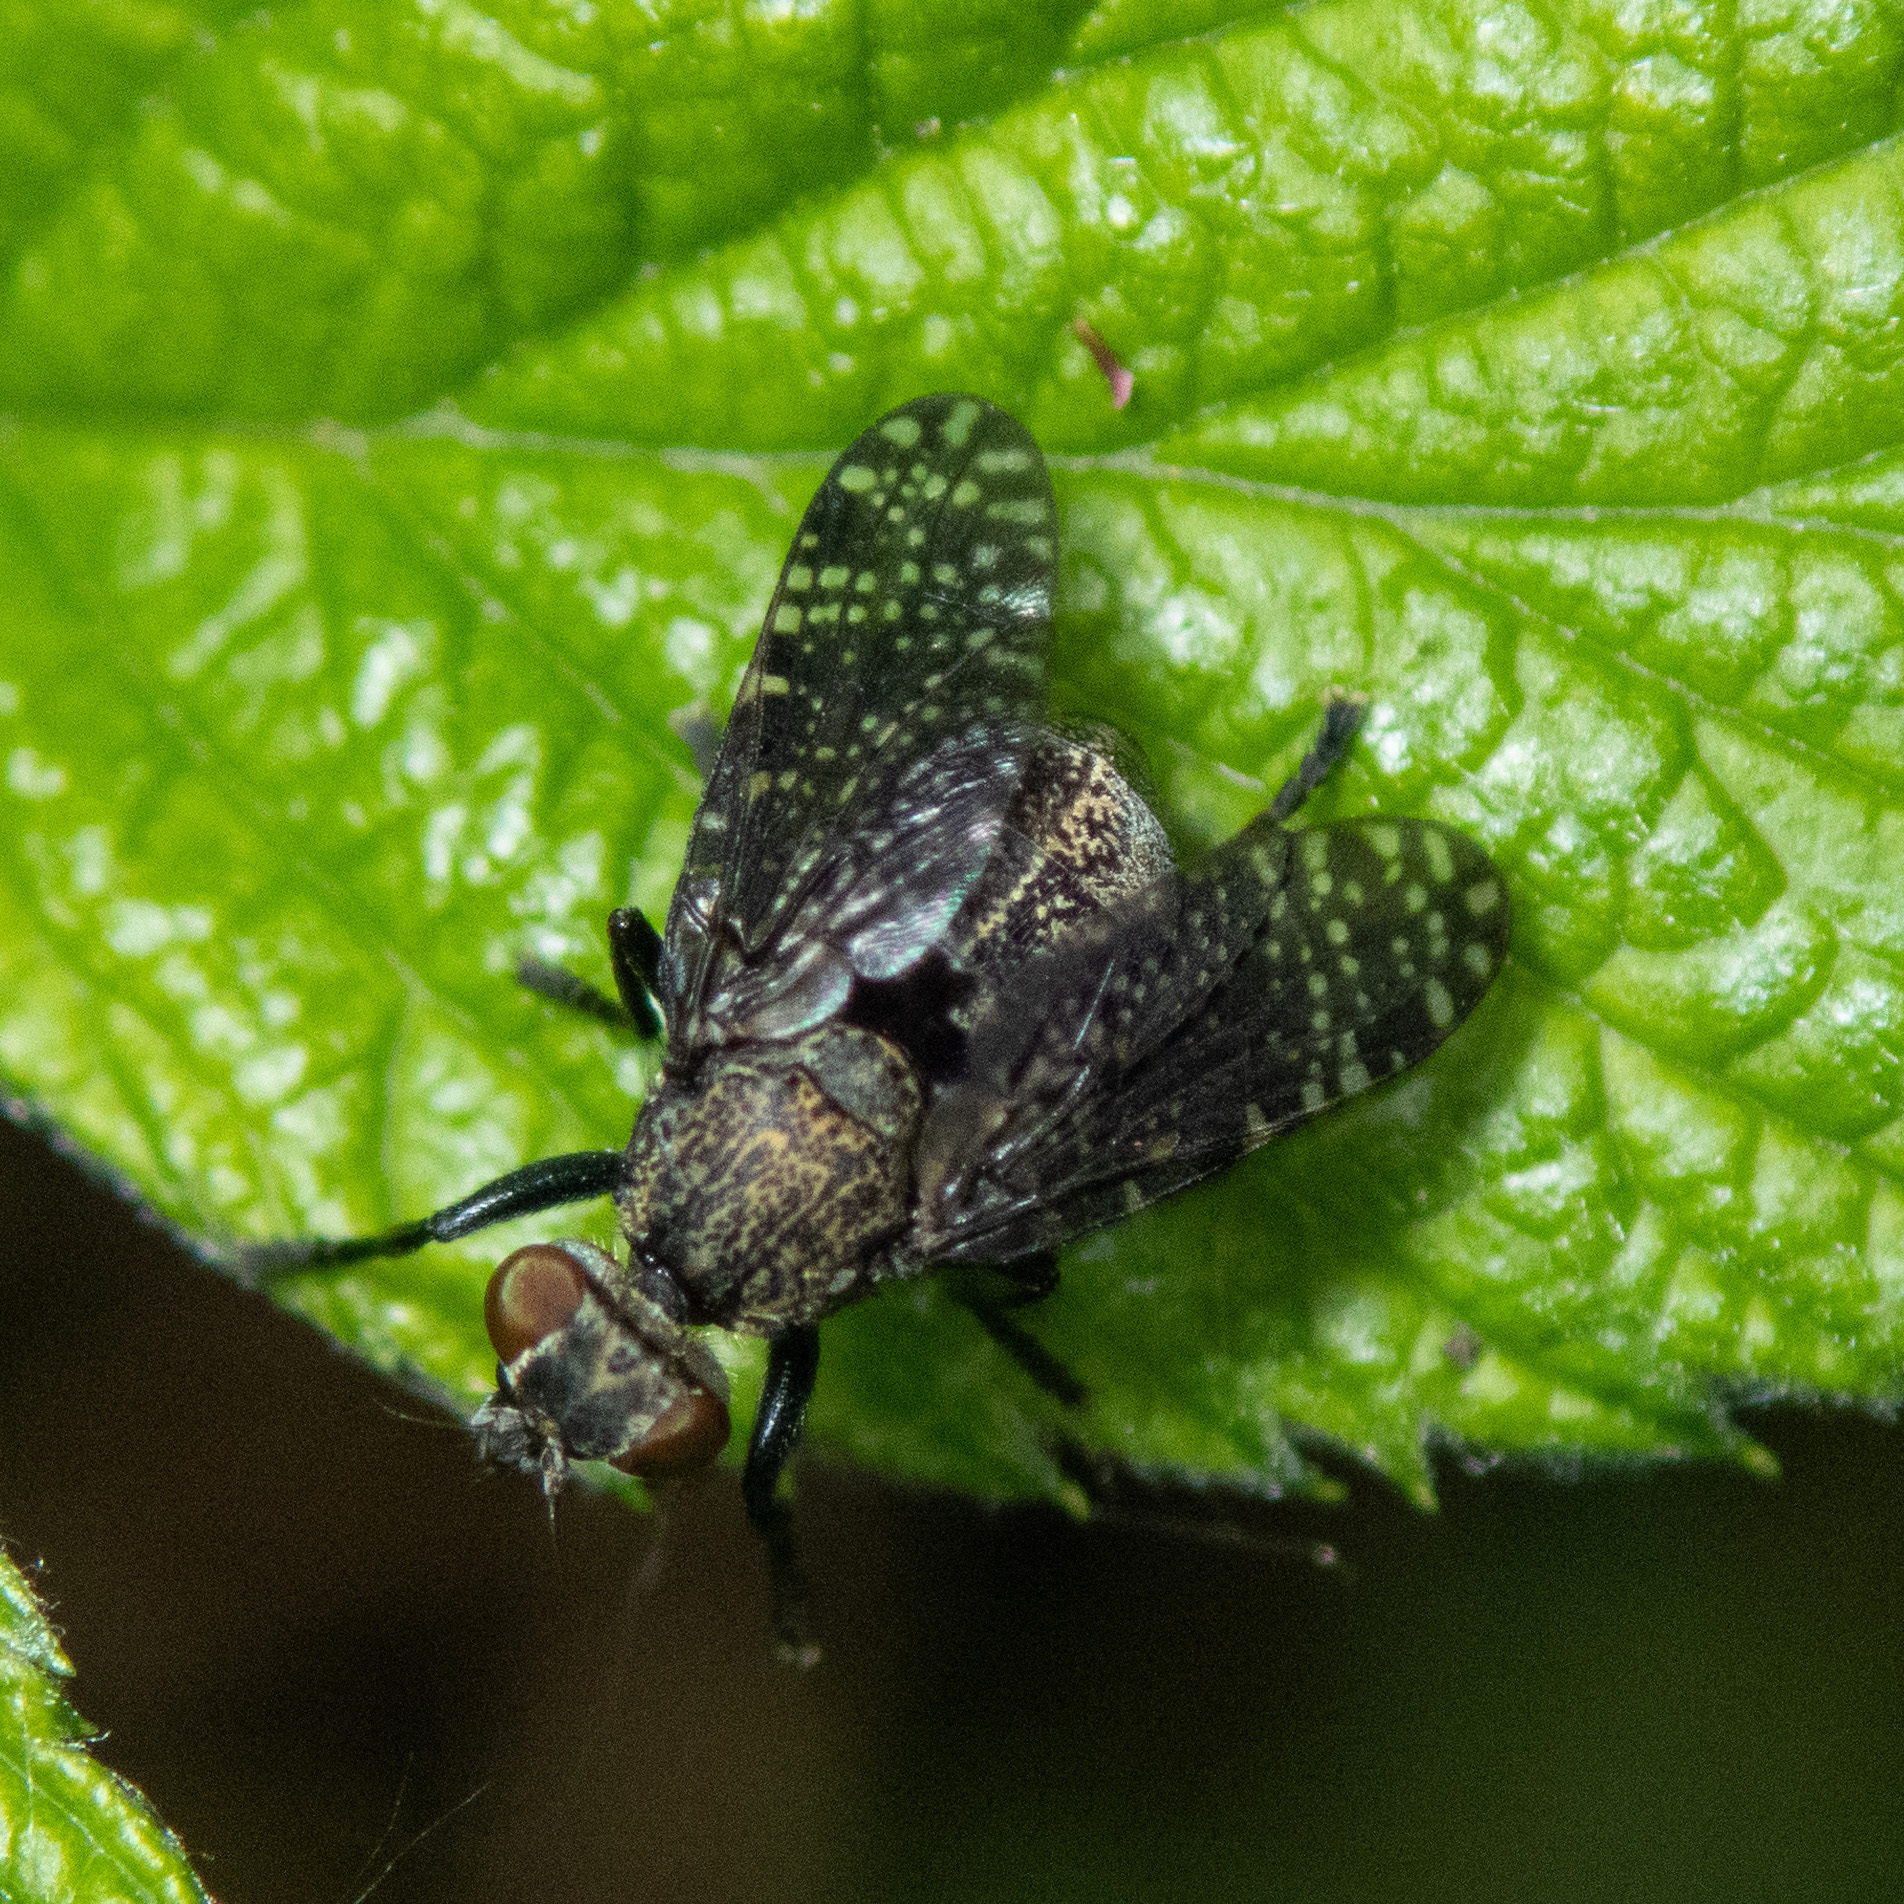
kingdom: Animalia
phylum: Arthropoda
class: Insecta
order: Diptera
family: Platystomatidae
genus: Platystoma
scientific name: Platystoma seminationis
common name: Fly
